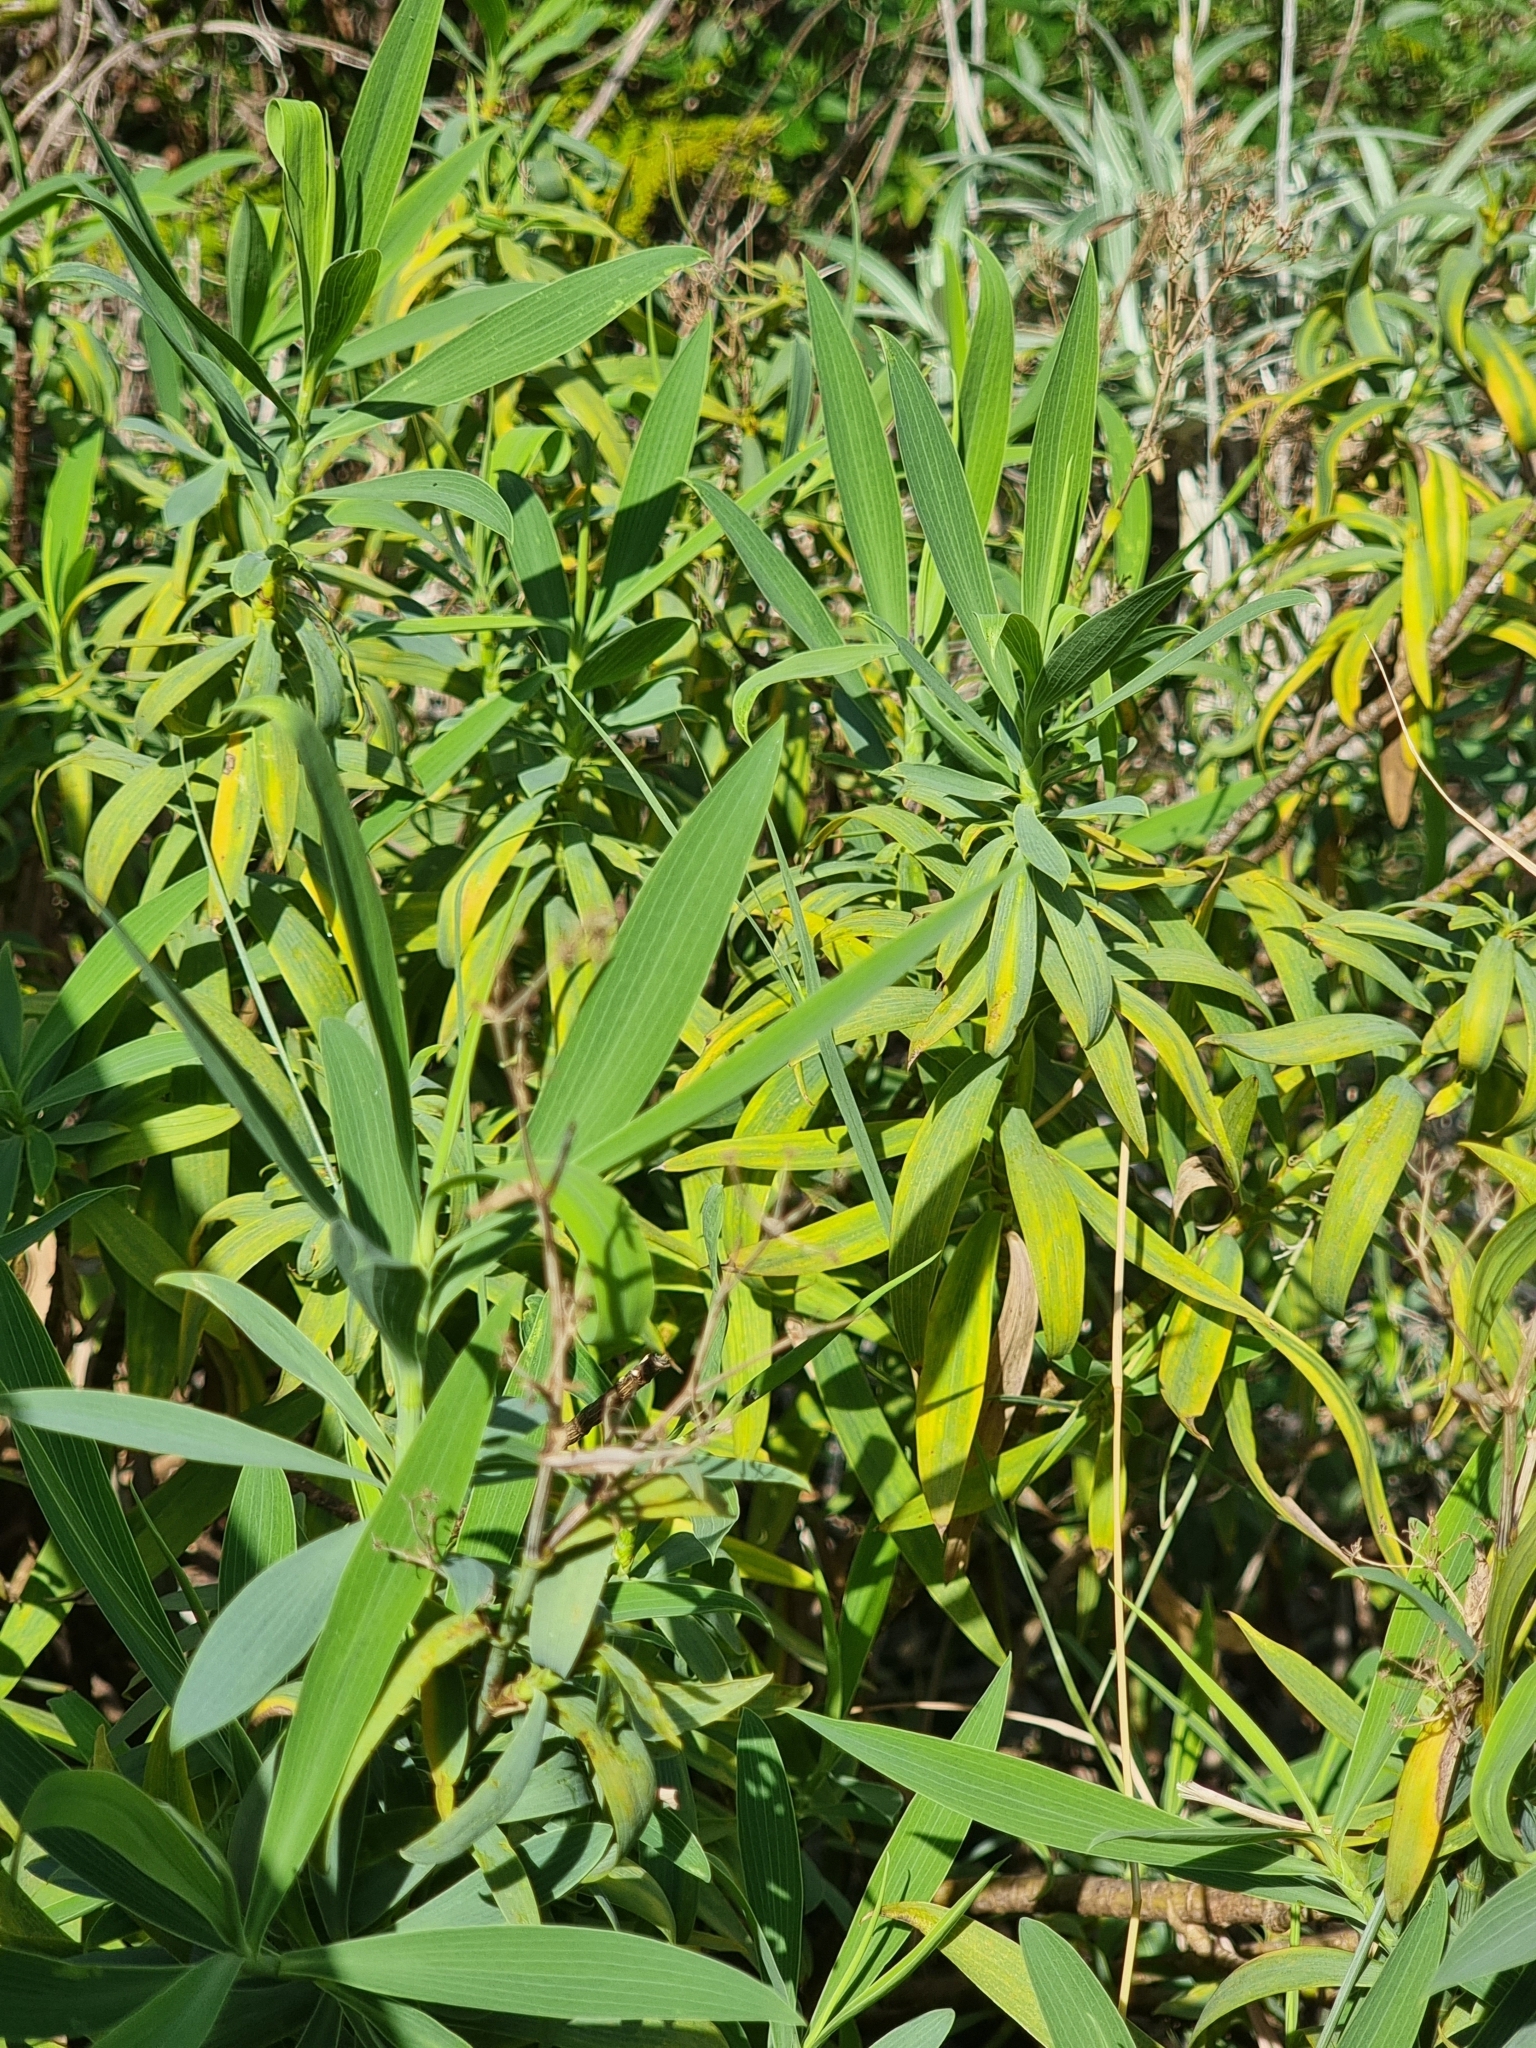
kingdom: Plantae
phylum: Tracheophyta
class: Magnoliopsida
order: Apiales
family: Apiaceae
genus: Bupleurum
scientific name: Bupleurum salicifolium
